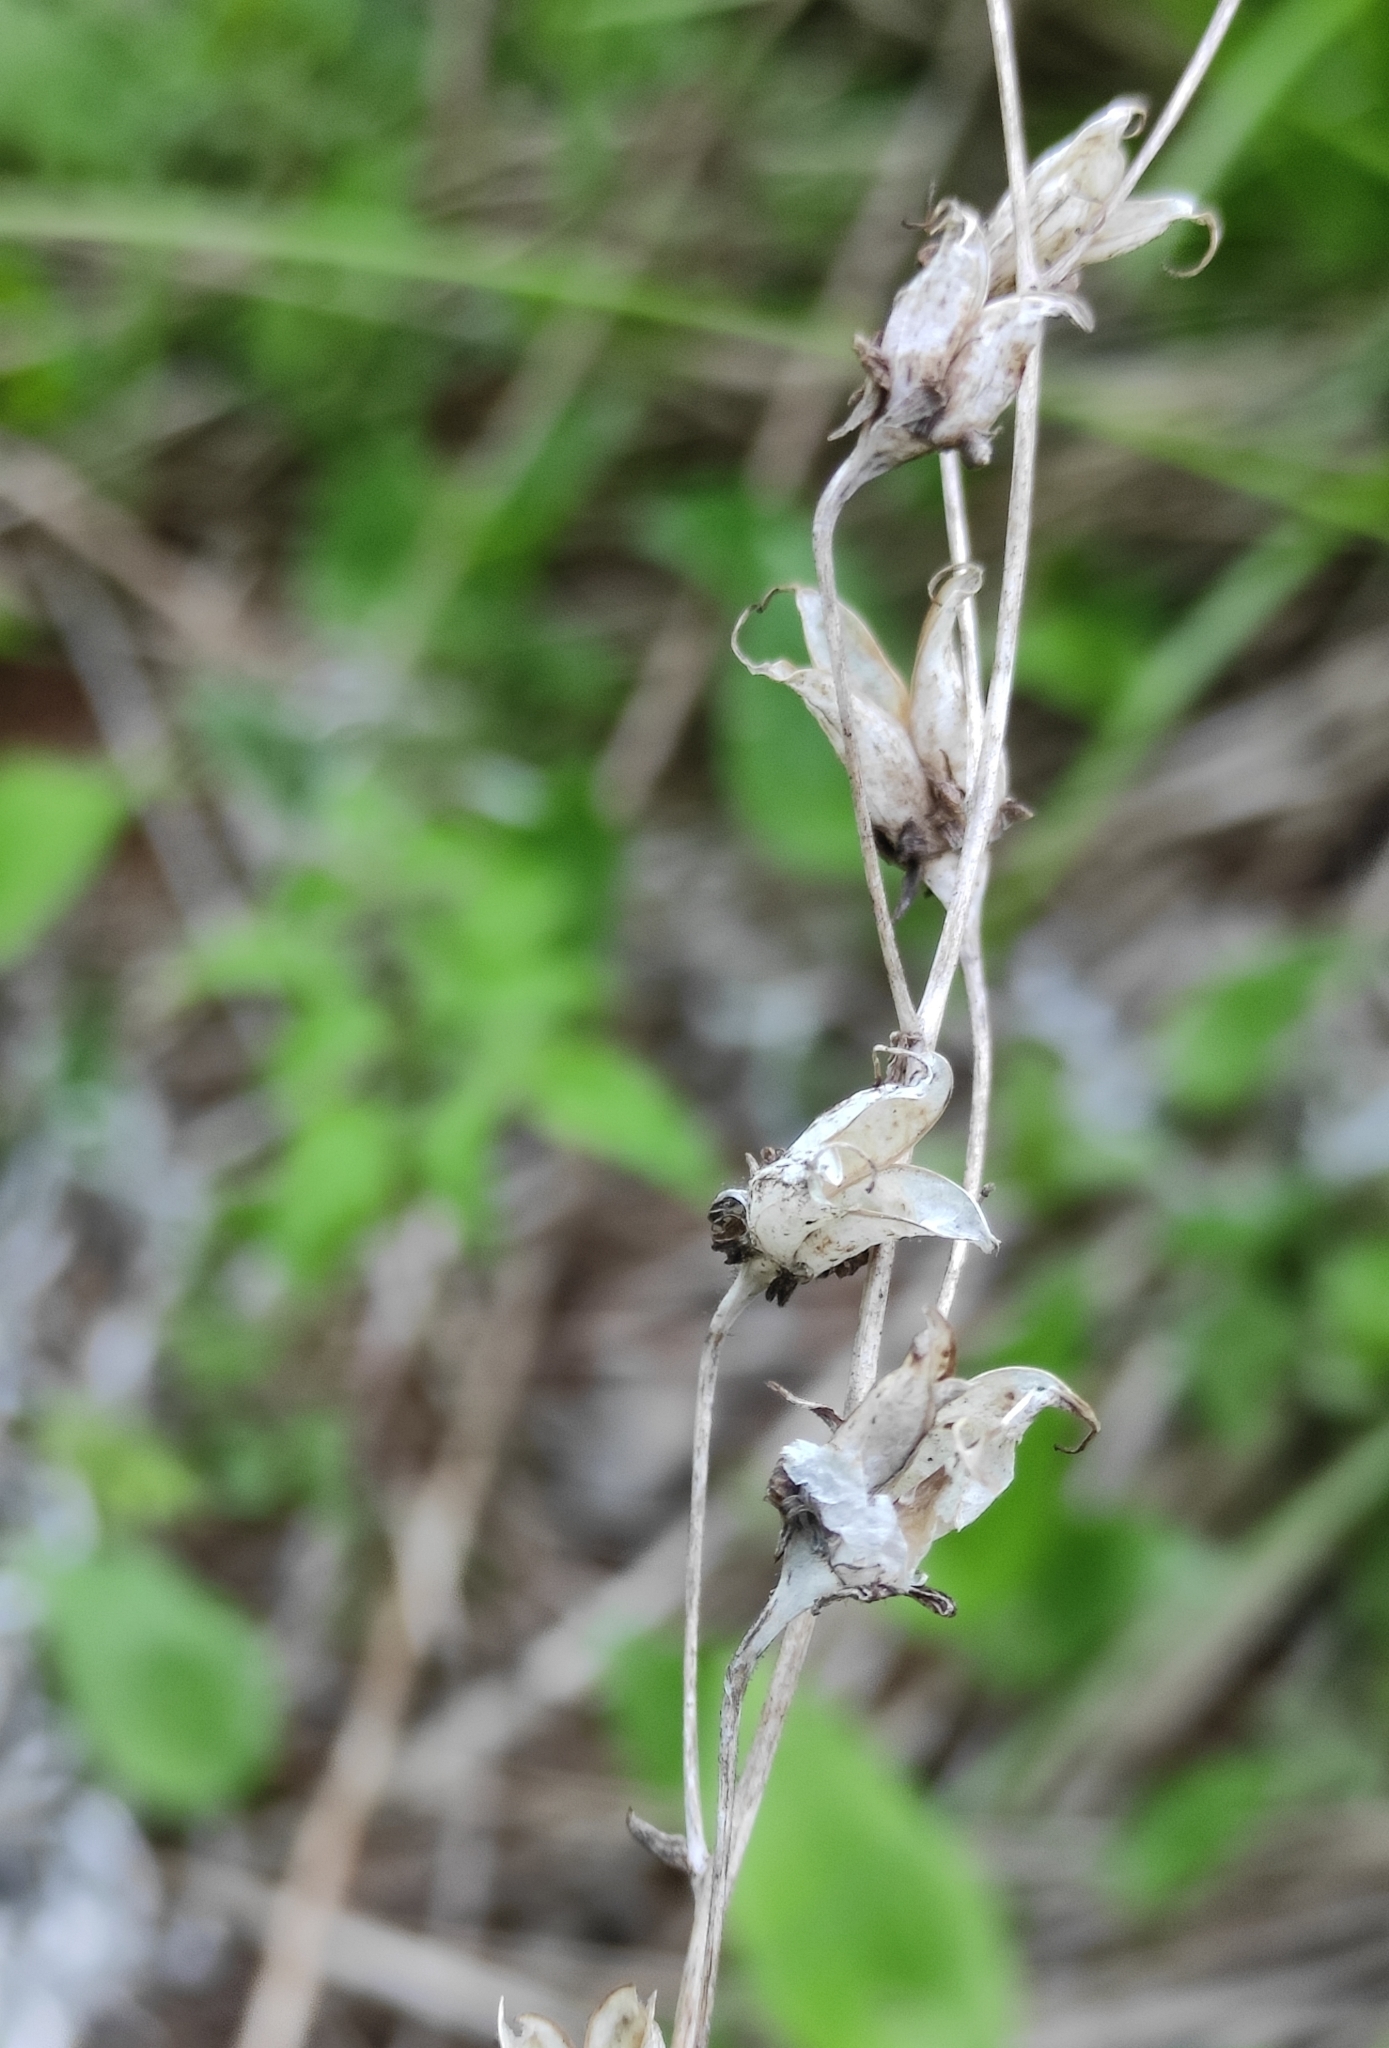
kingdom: Plantae
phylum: Tracheophyta
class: Liliopsida
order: Liliales
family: Melanthiaceae
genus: Anticlea
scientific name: Anticlea sibirica
